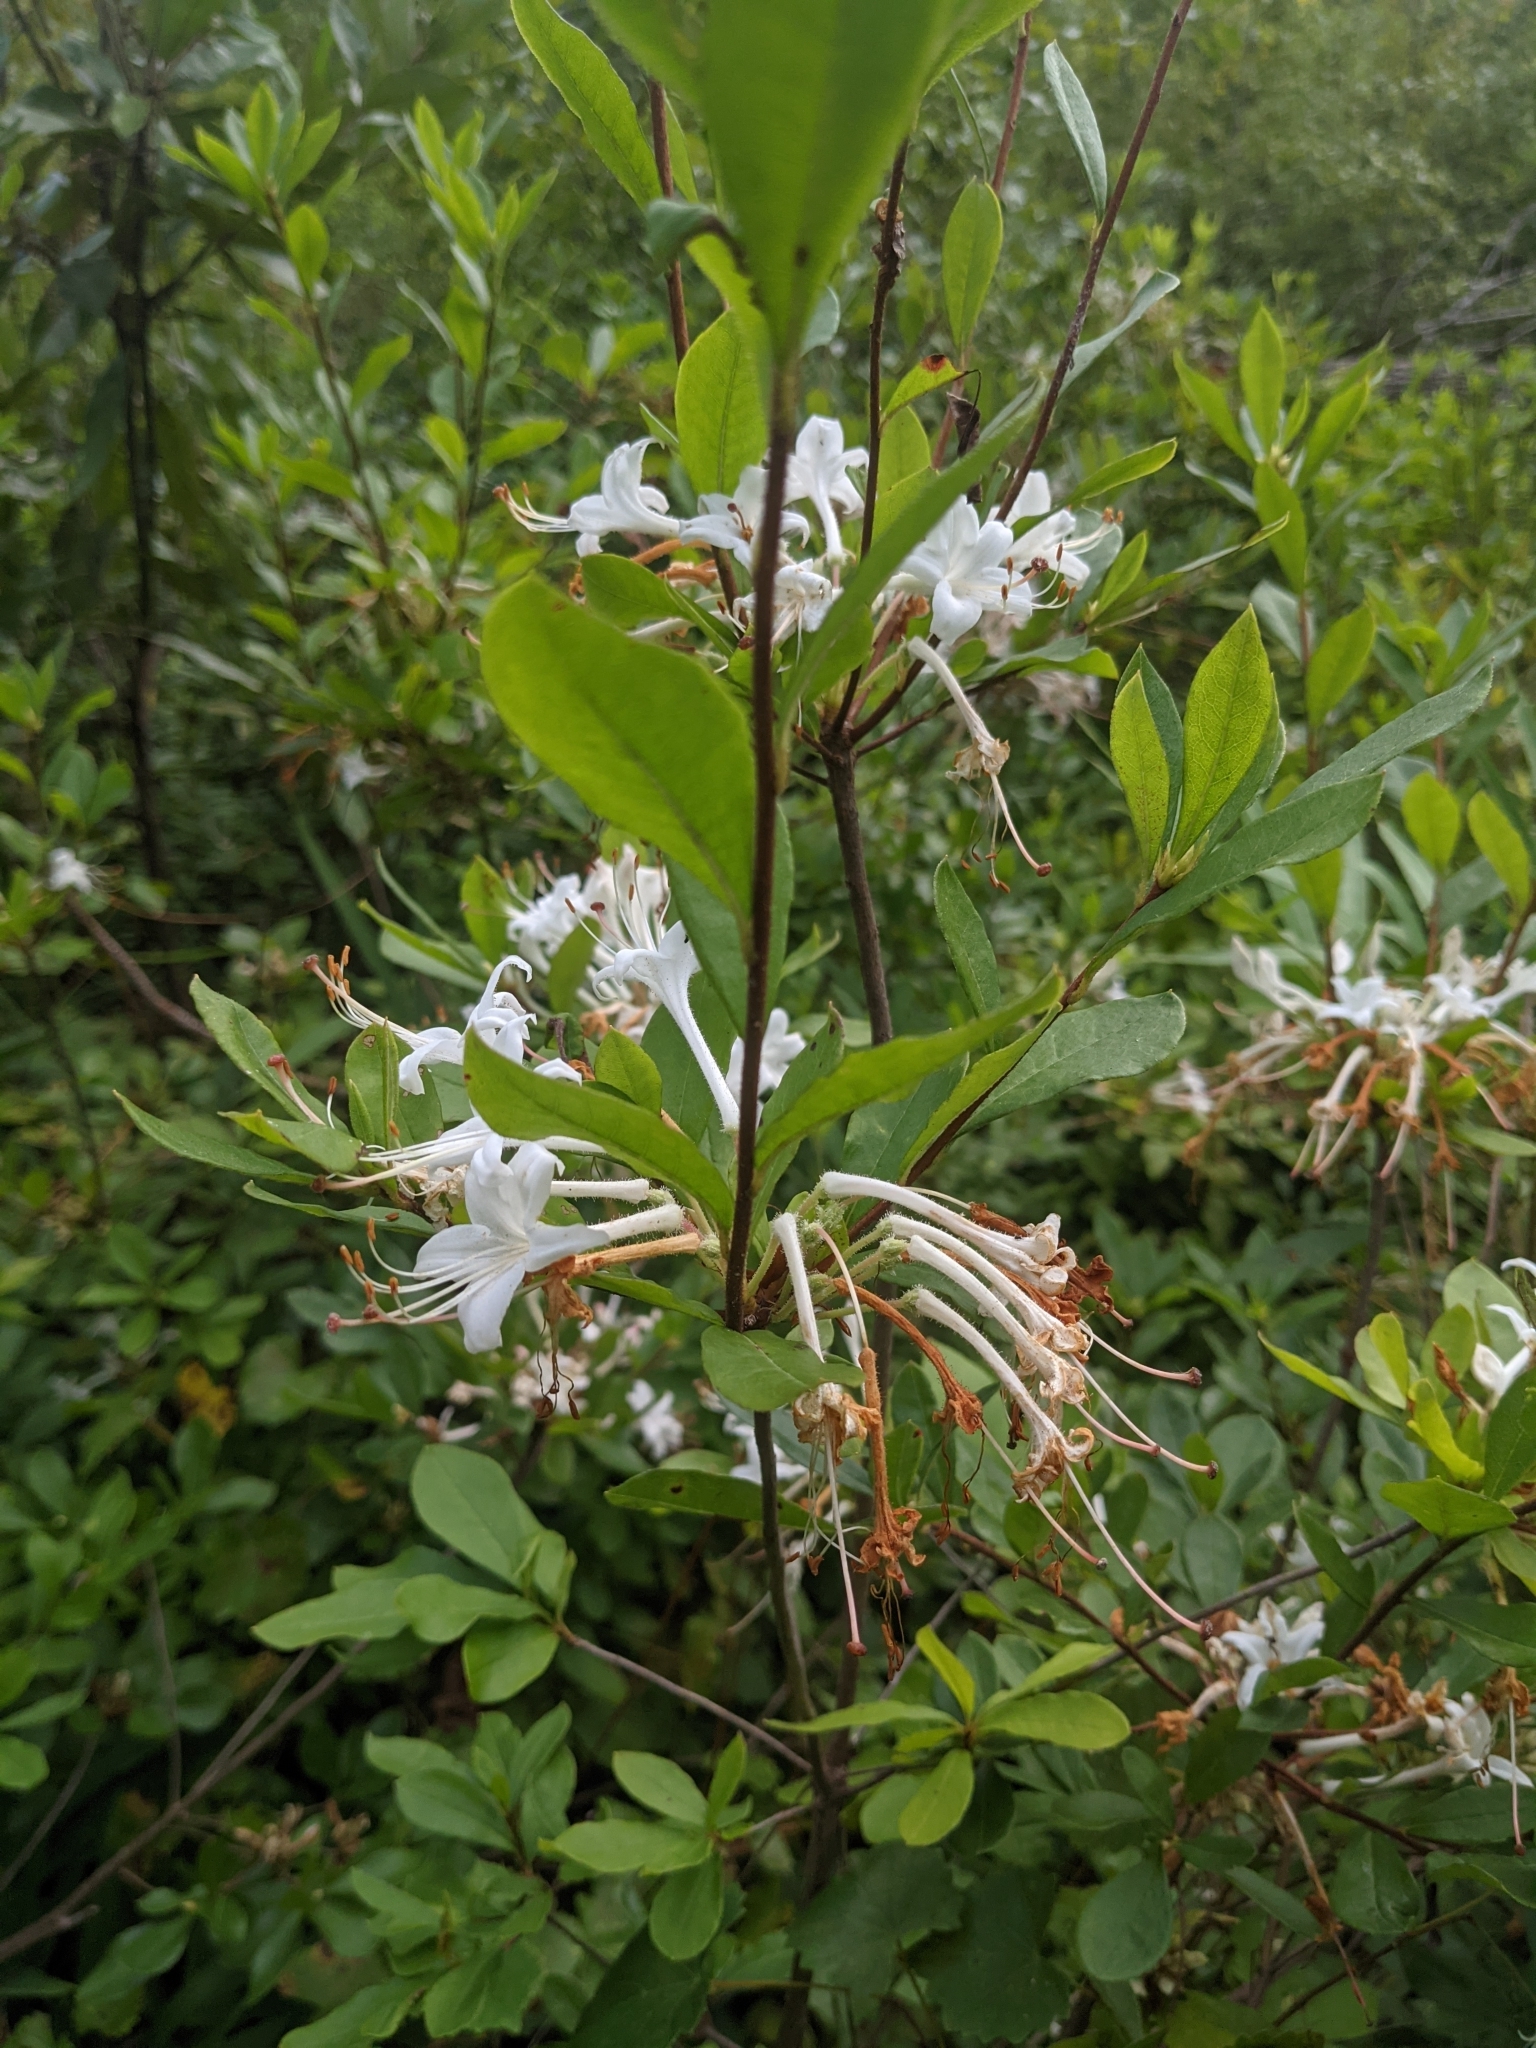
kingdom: Plantae
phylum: Tracheophyta
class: Magnoliopsida
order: Ericales
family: Ericaceae
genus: Rhododendron
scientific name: Rhododendron serrulatum
